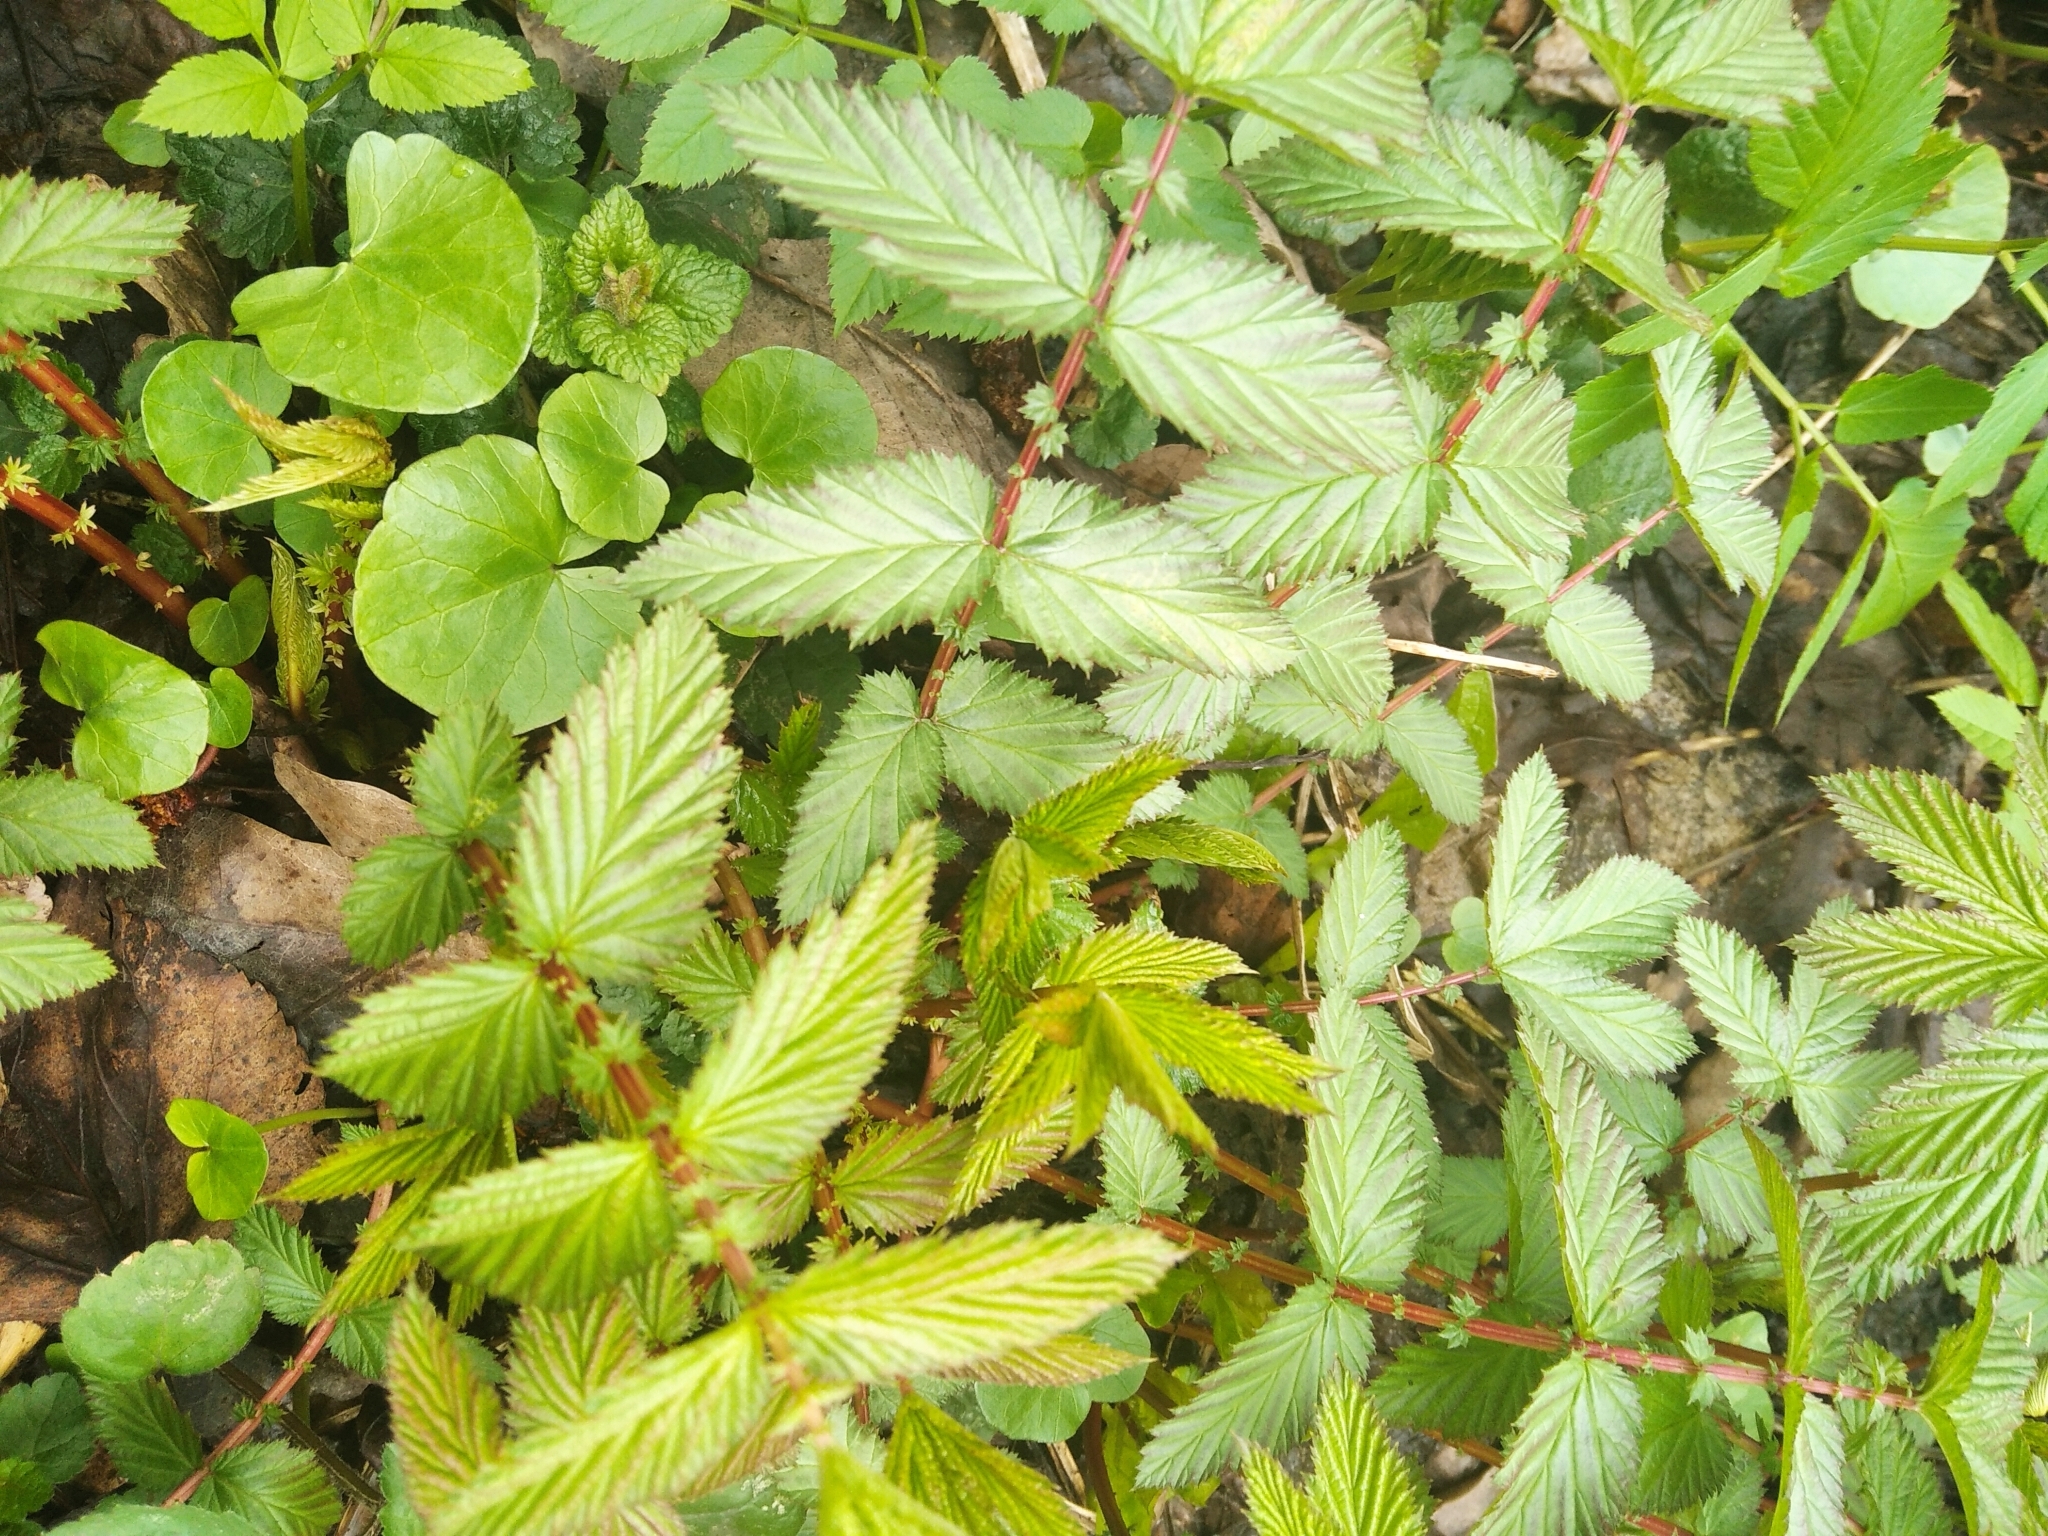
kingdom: Plantae
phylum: Tracheophyta
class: Magnoliopsida
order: Rosales
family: Rosaceae
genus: Filipendula
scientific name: Filipendula ulmaria
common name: Meadowsweet
